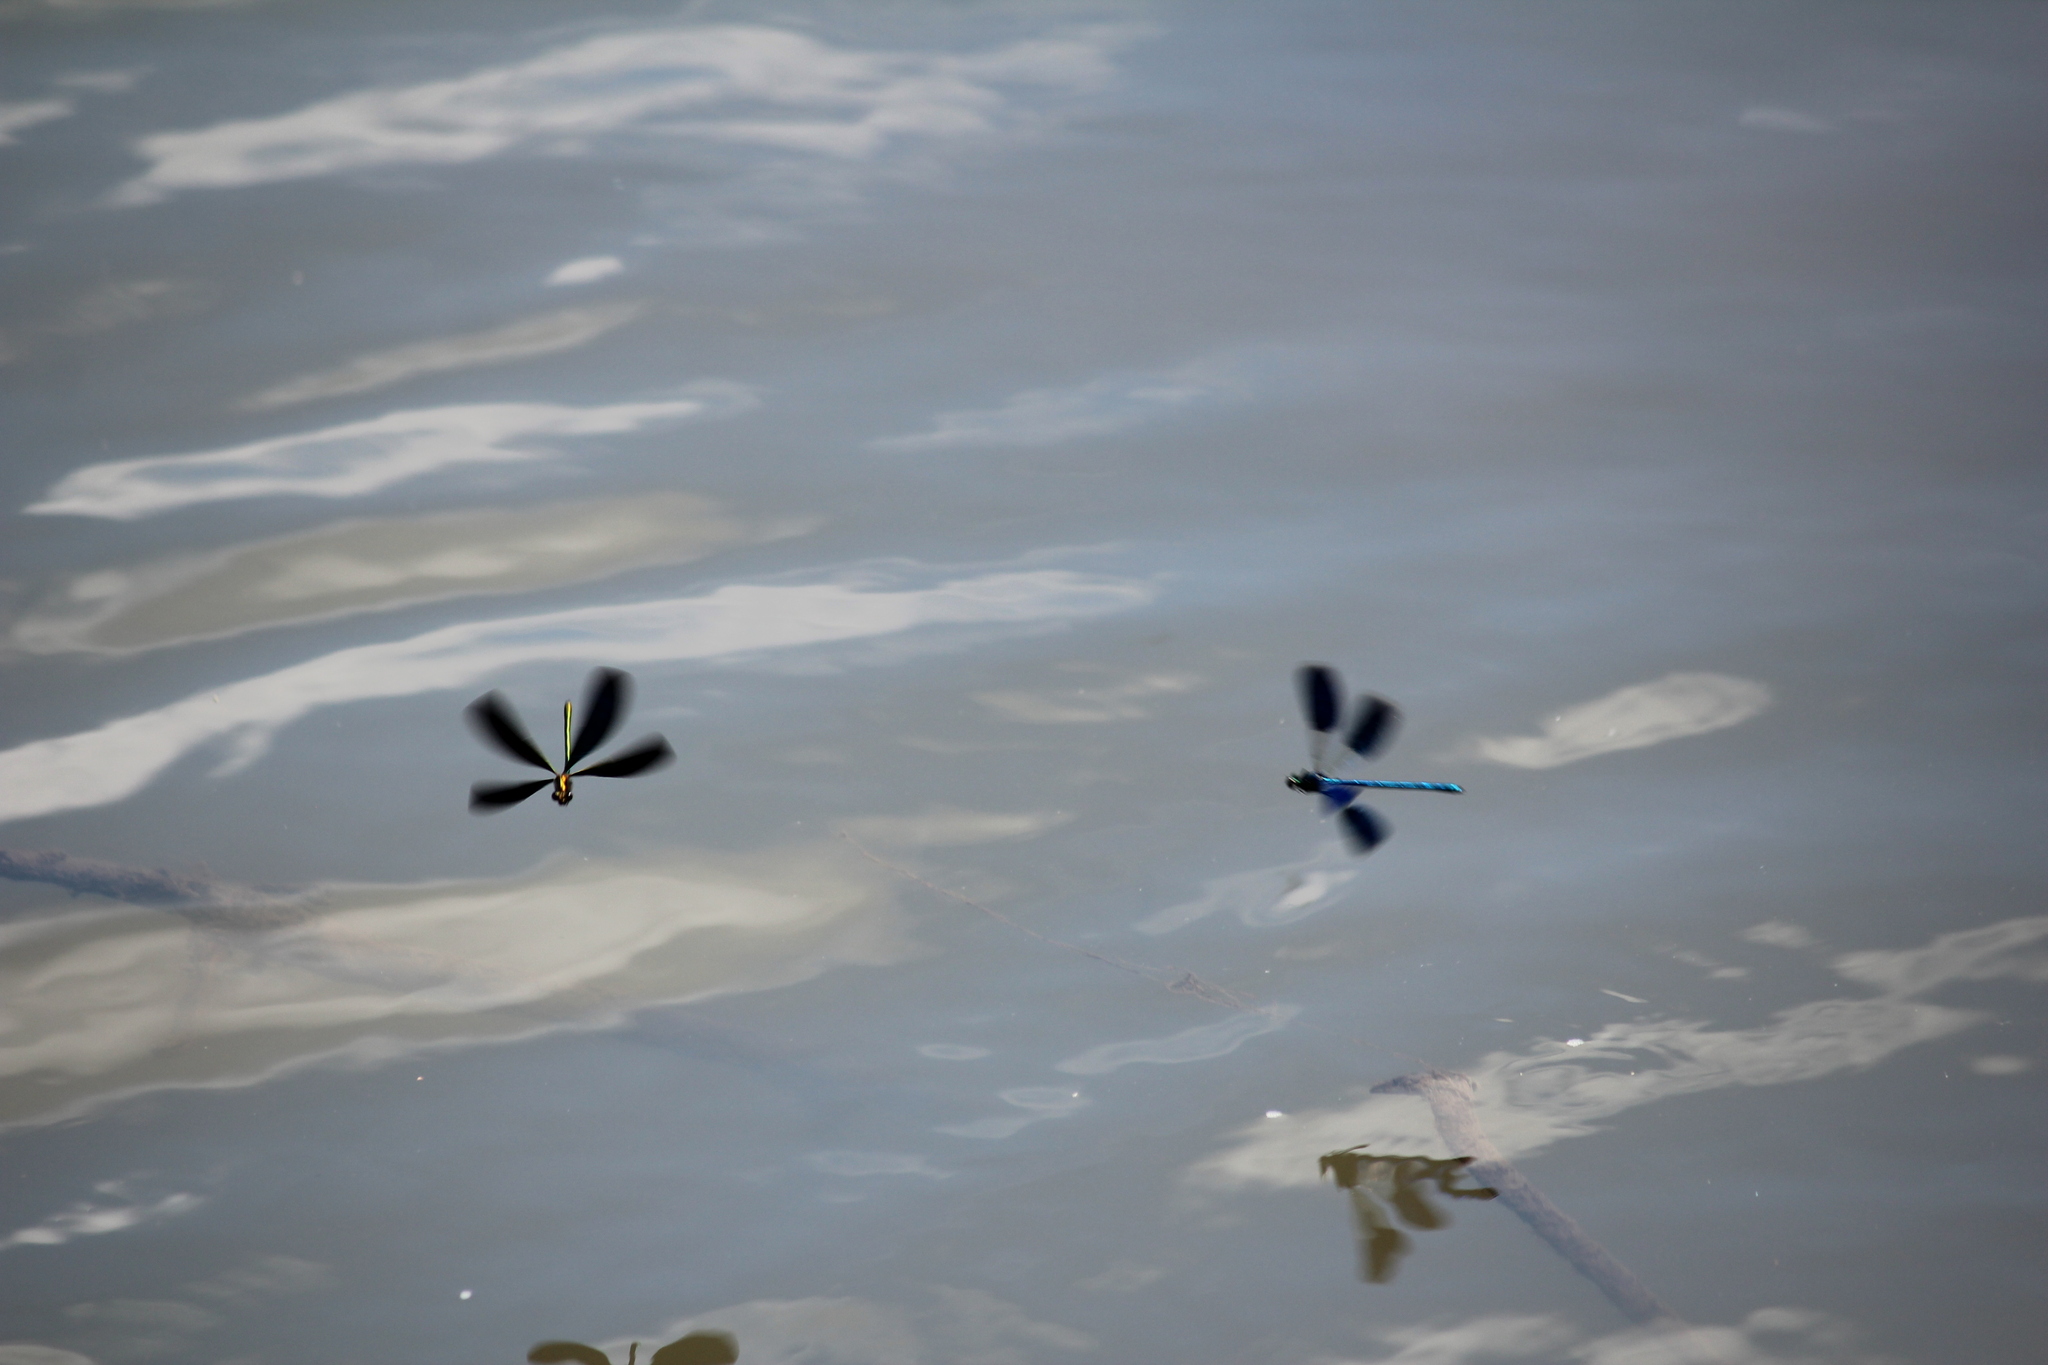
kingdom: Animalia
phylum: Arthropoda
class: Insecta
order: Odonata
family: Calopterygidae
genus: Calopteryx
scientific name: Calopteryx japonica
